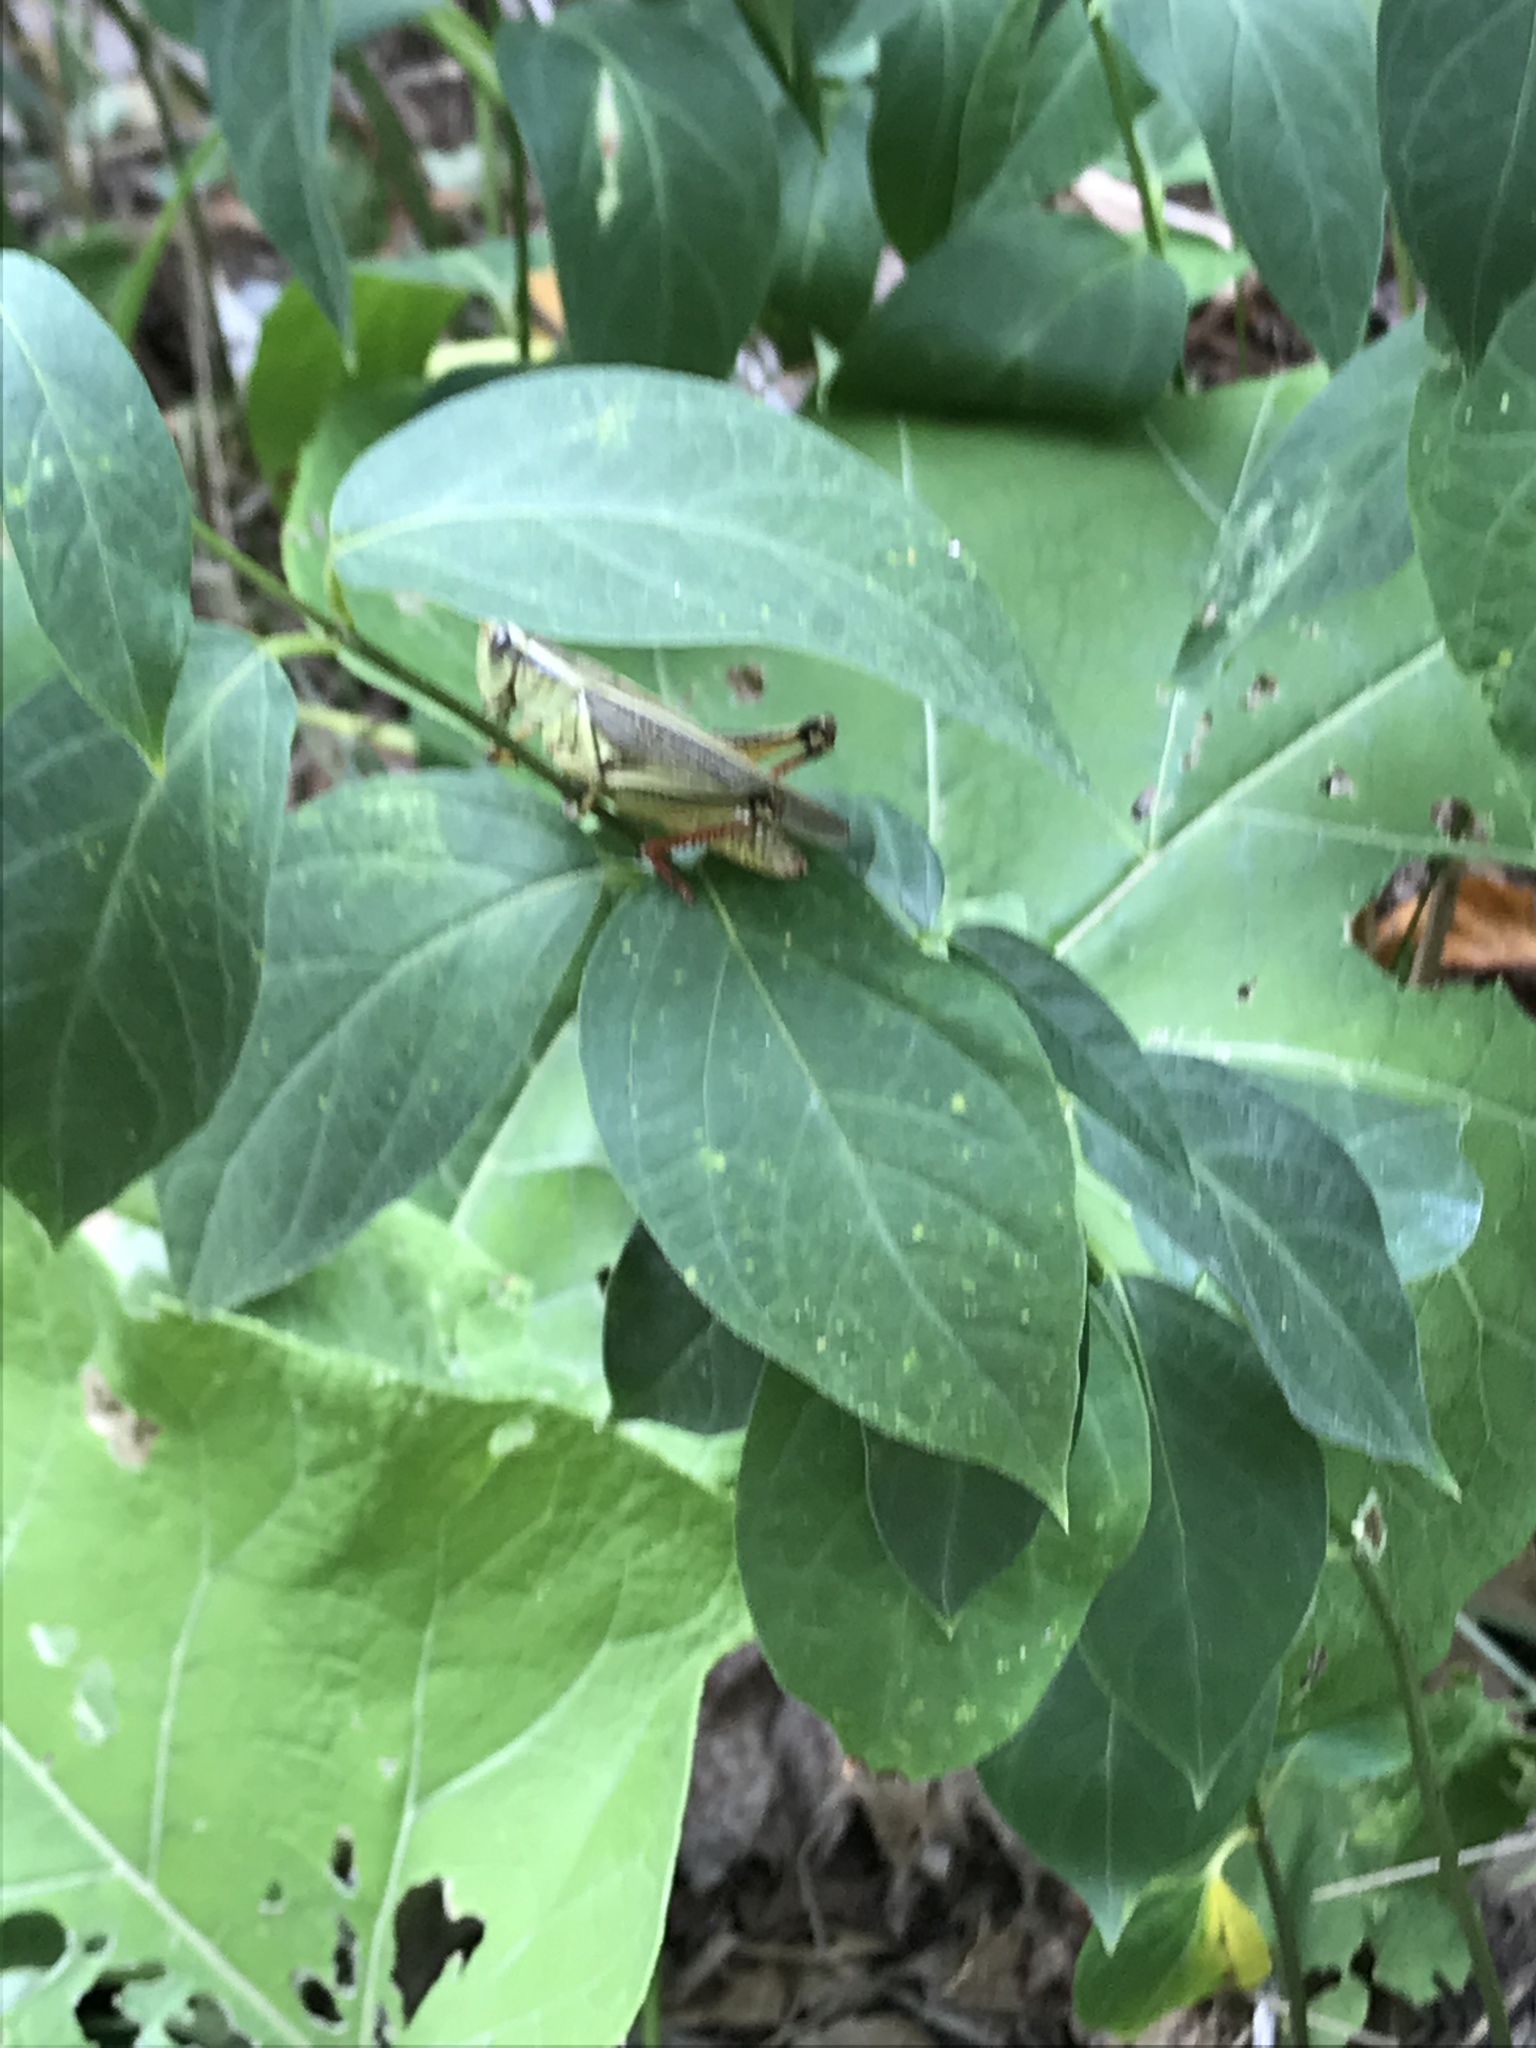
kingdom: Animalia
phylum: Arthropoda
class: Insecta
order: Orthoptera
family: Acrididae
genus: Melanoplus
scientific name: Melanoplus bivittatus
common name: Two-striped grasshopper
